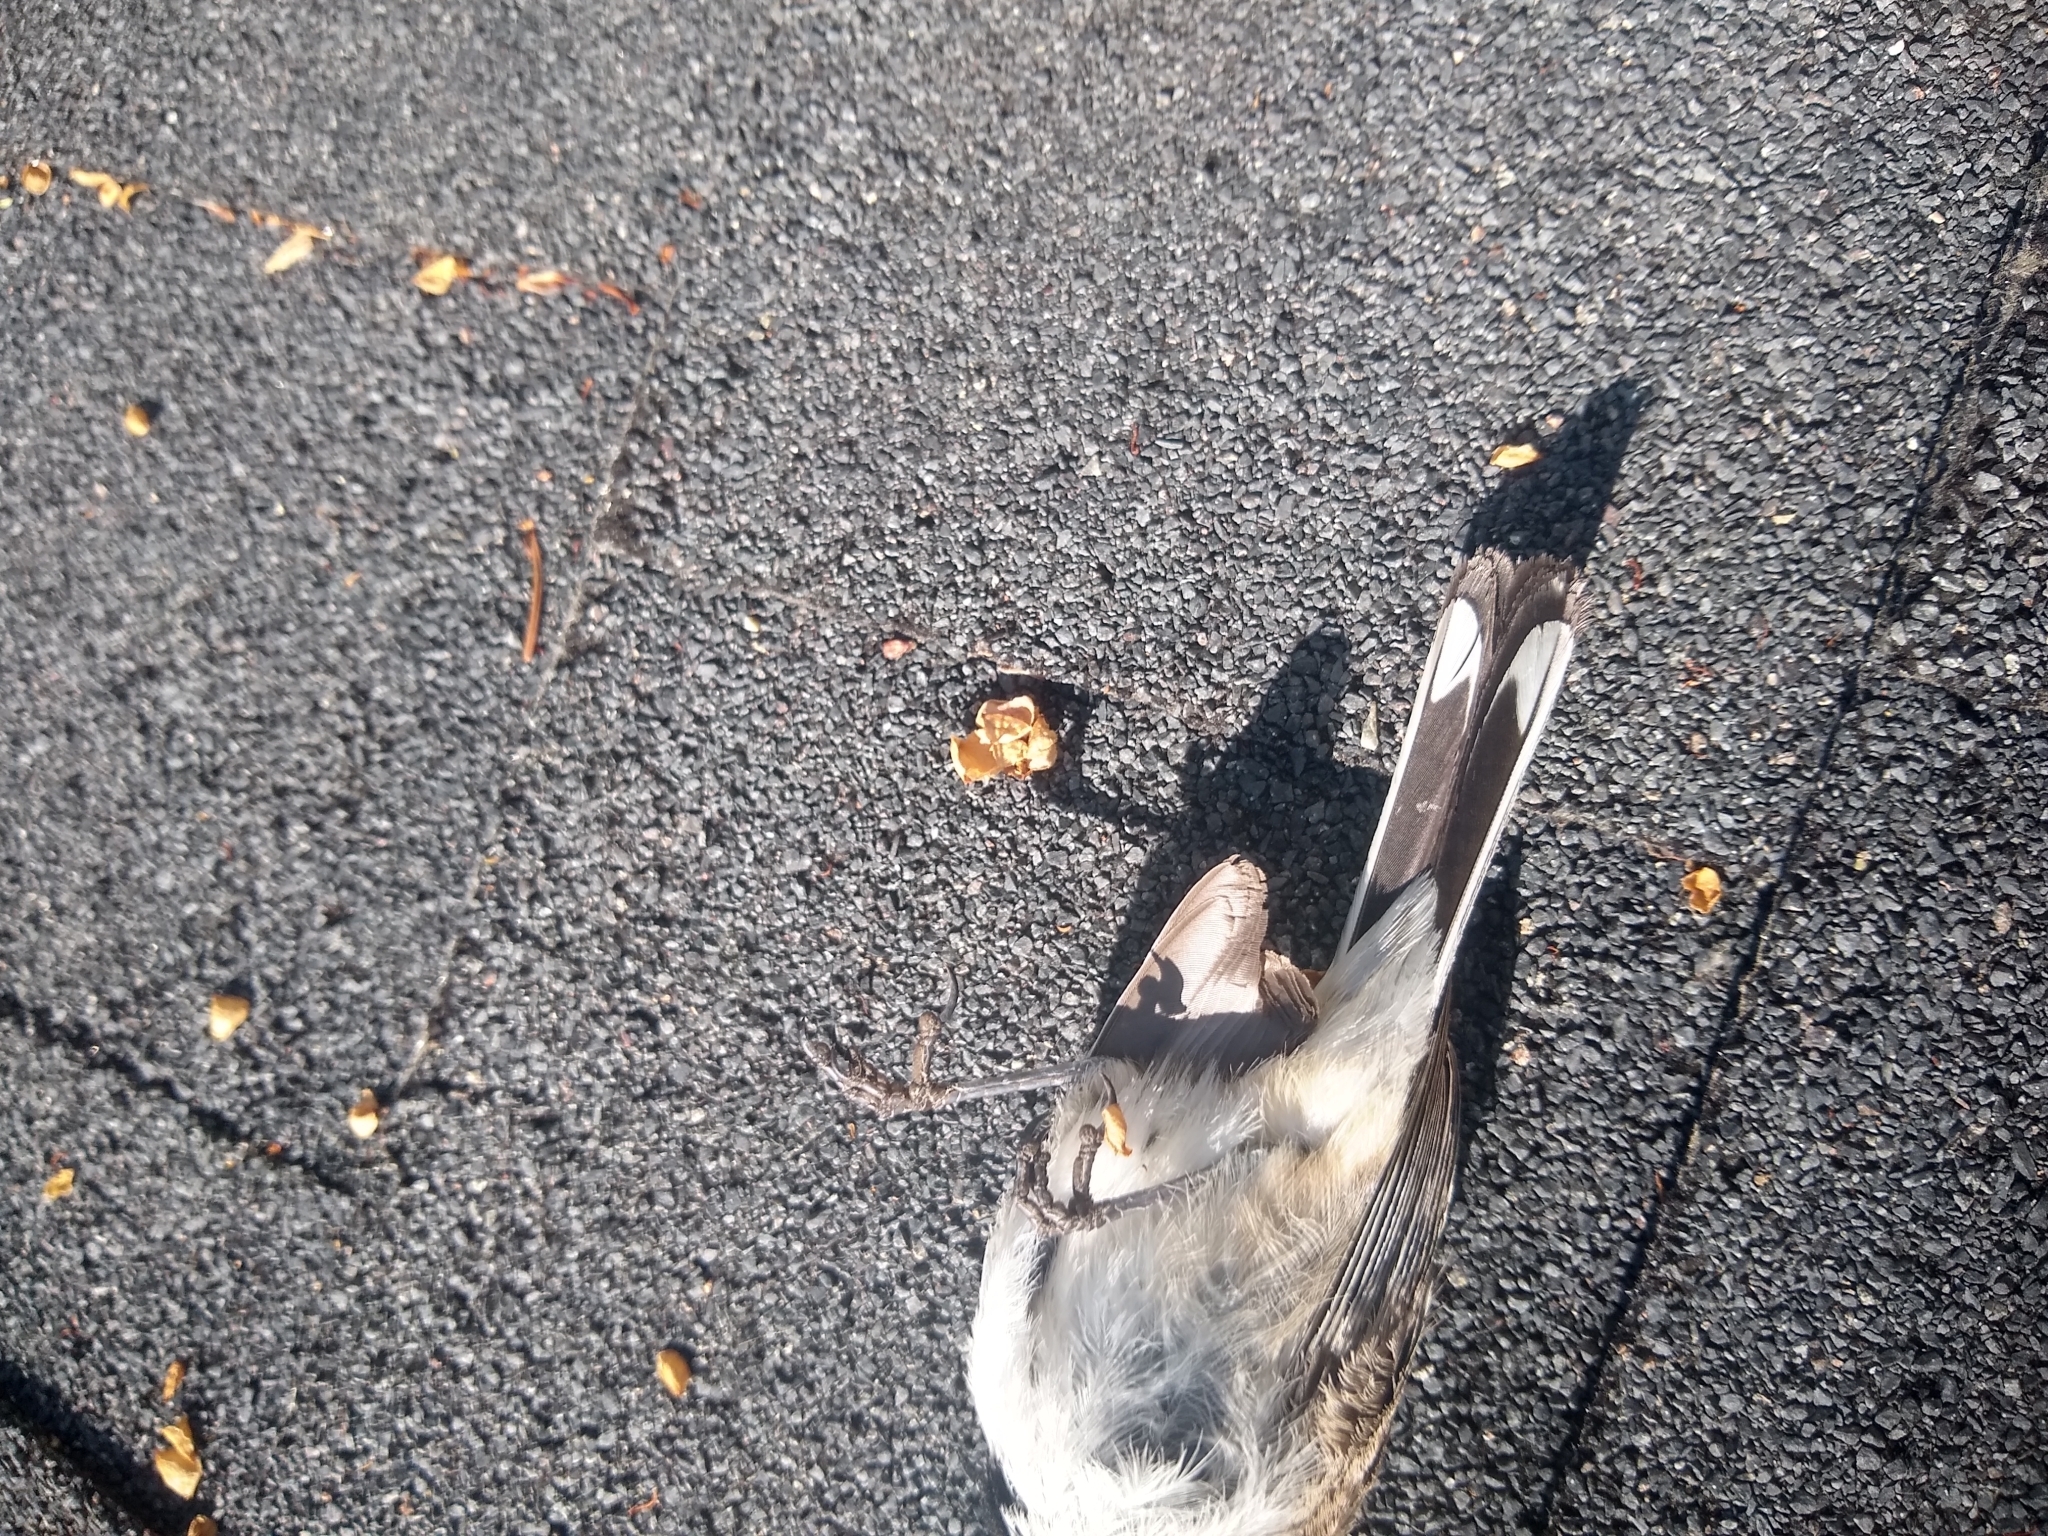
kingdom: Animalia
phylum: Chordata
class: Aves
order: Passeriformes
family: Passerellidae
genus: Amphispiza
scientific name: Amphispiza bilineata
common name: Black-throated sparrow
